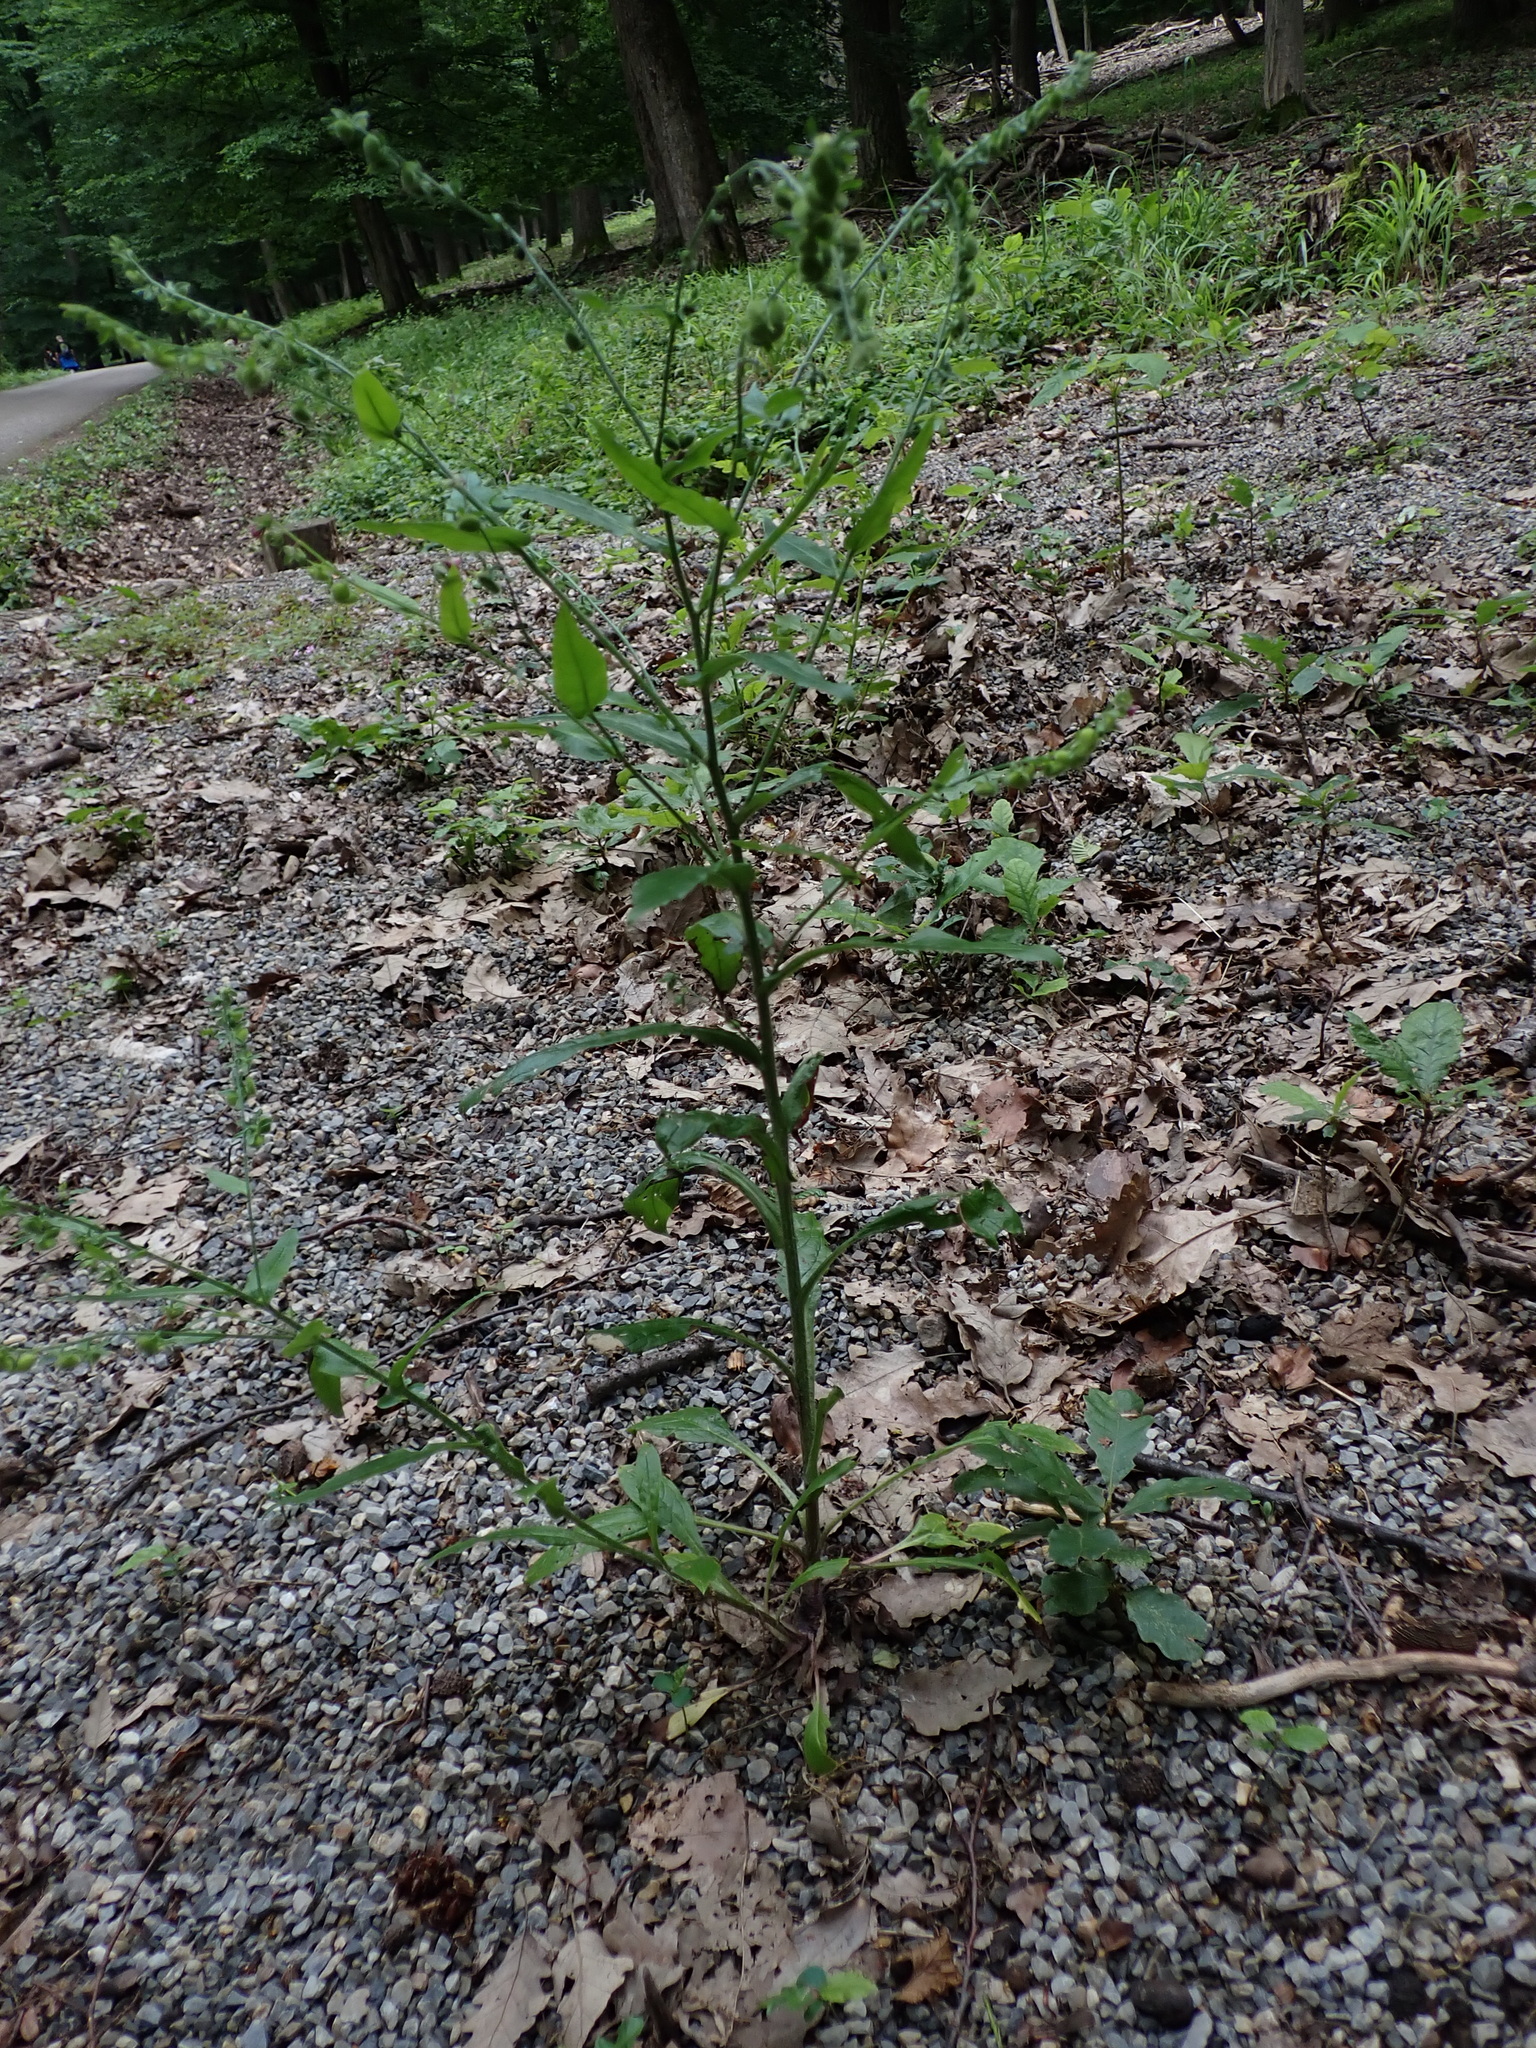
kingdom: Plantae
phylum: Tracheophyta
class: Magnoliopsida
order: Boraginales
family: Boraginaceae
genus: Cynoglossum
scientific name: Cynoglossum germanicum
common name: Green hound's-tongue
